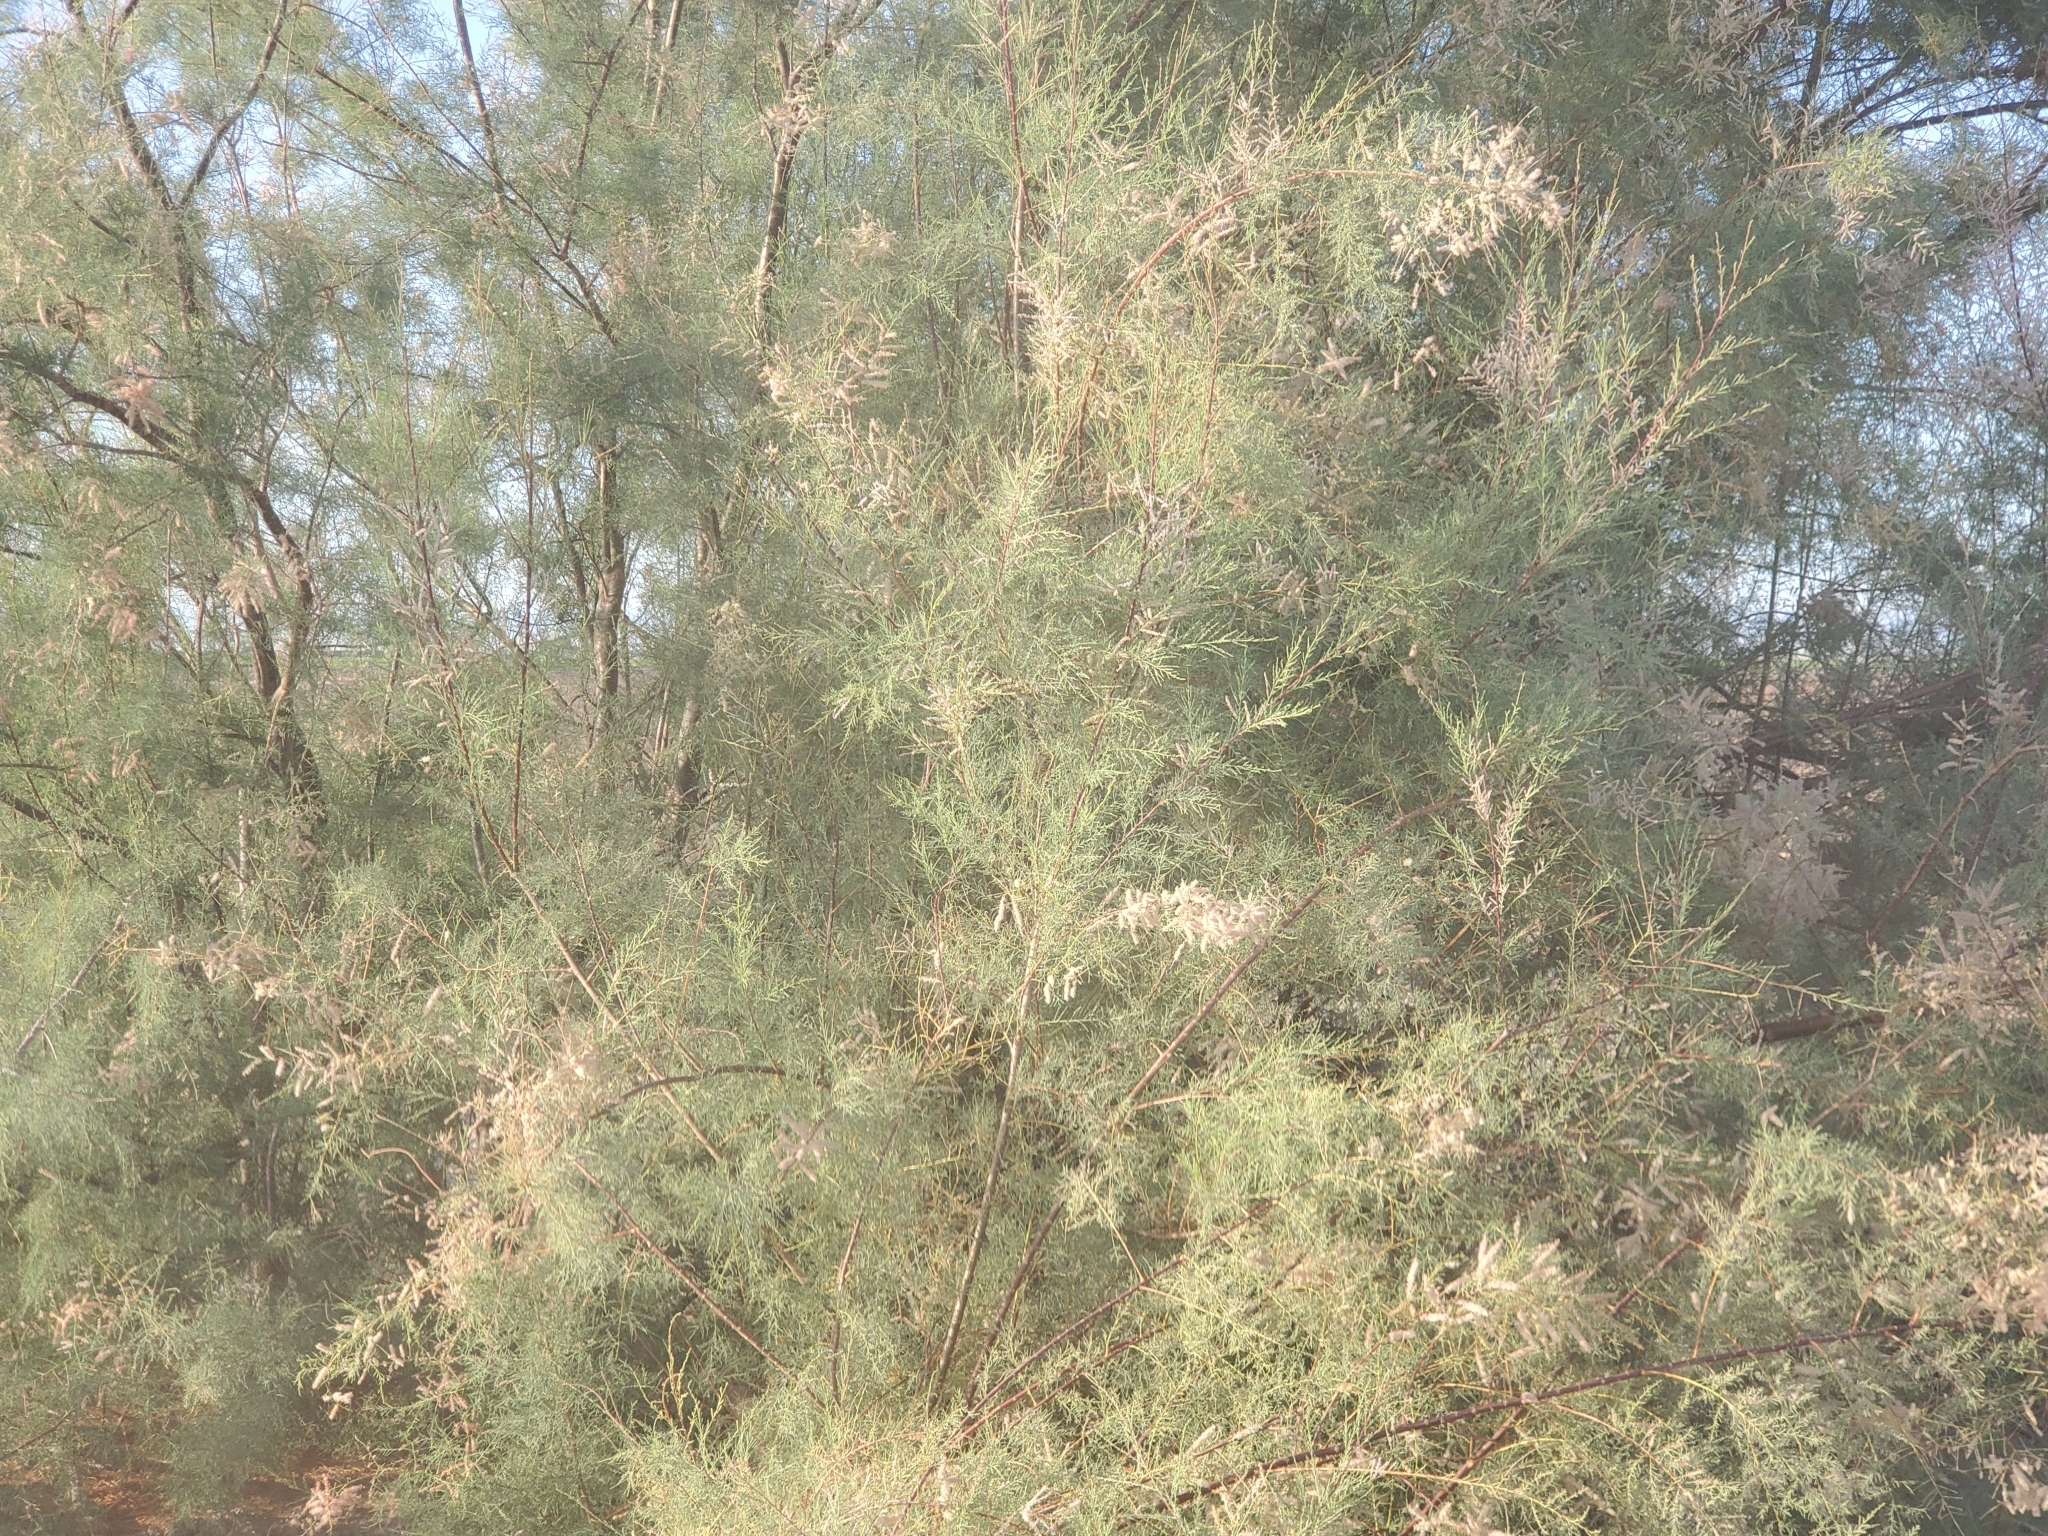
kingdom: Plantae
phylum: Tracheophyta
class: Magnoliopsida
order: Caryophyllales
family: Tamaricaceae
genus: Tamarix
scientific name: Tamarix ramosissima
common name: Pink tamarisk
